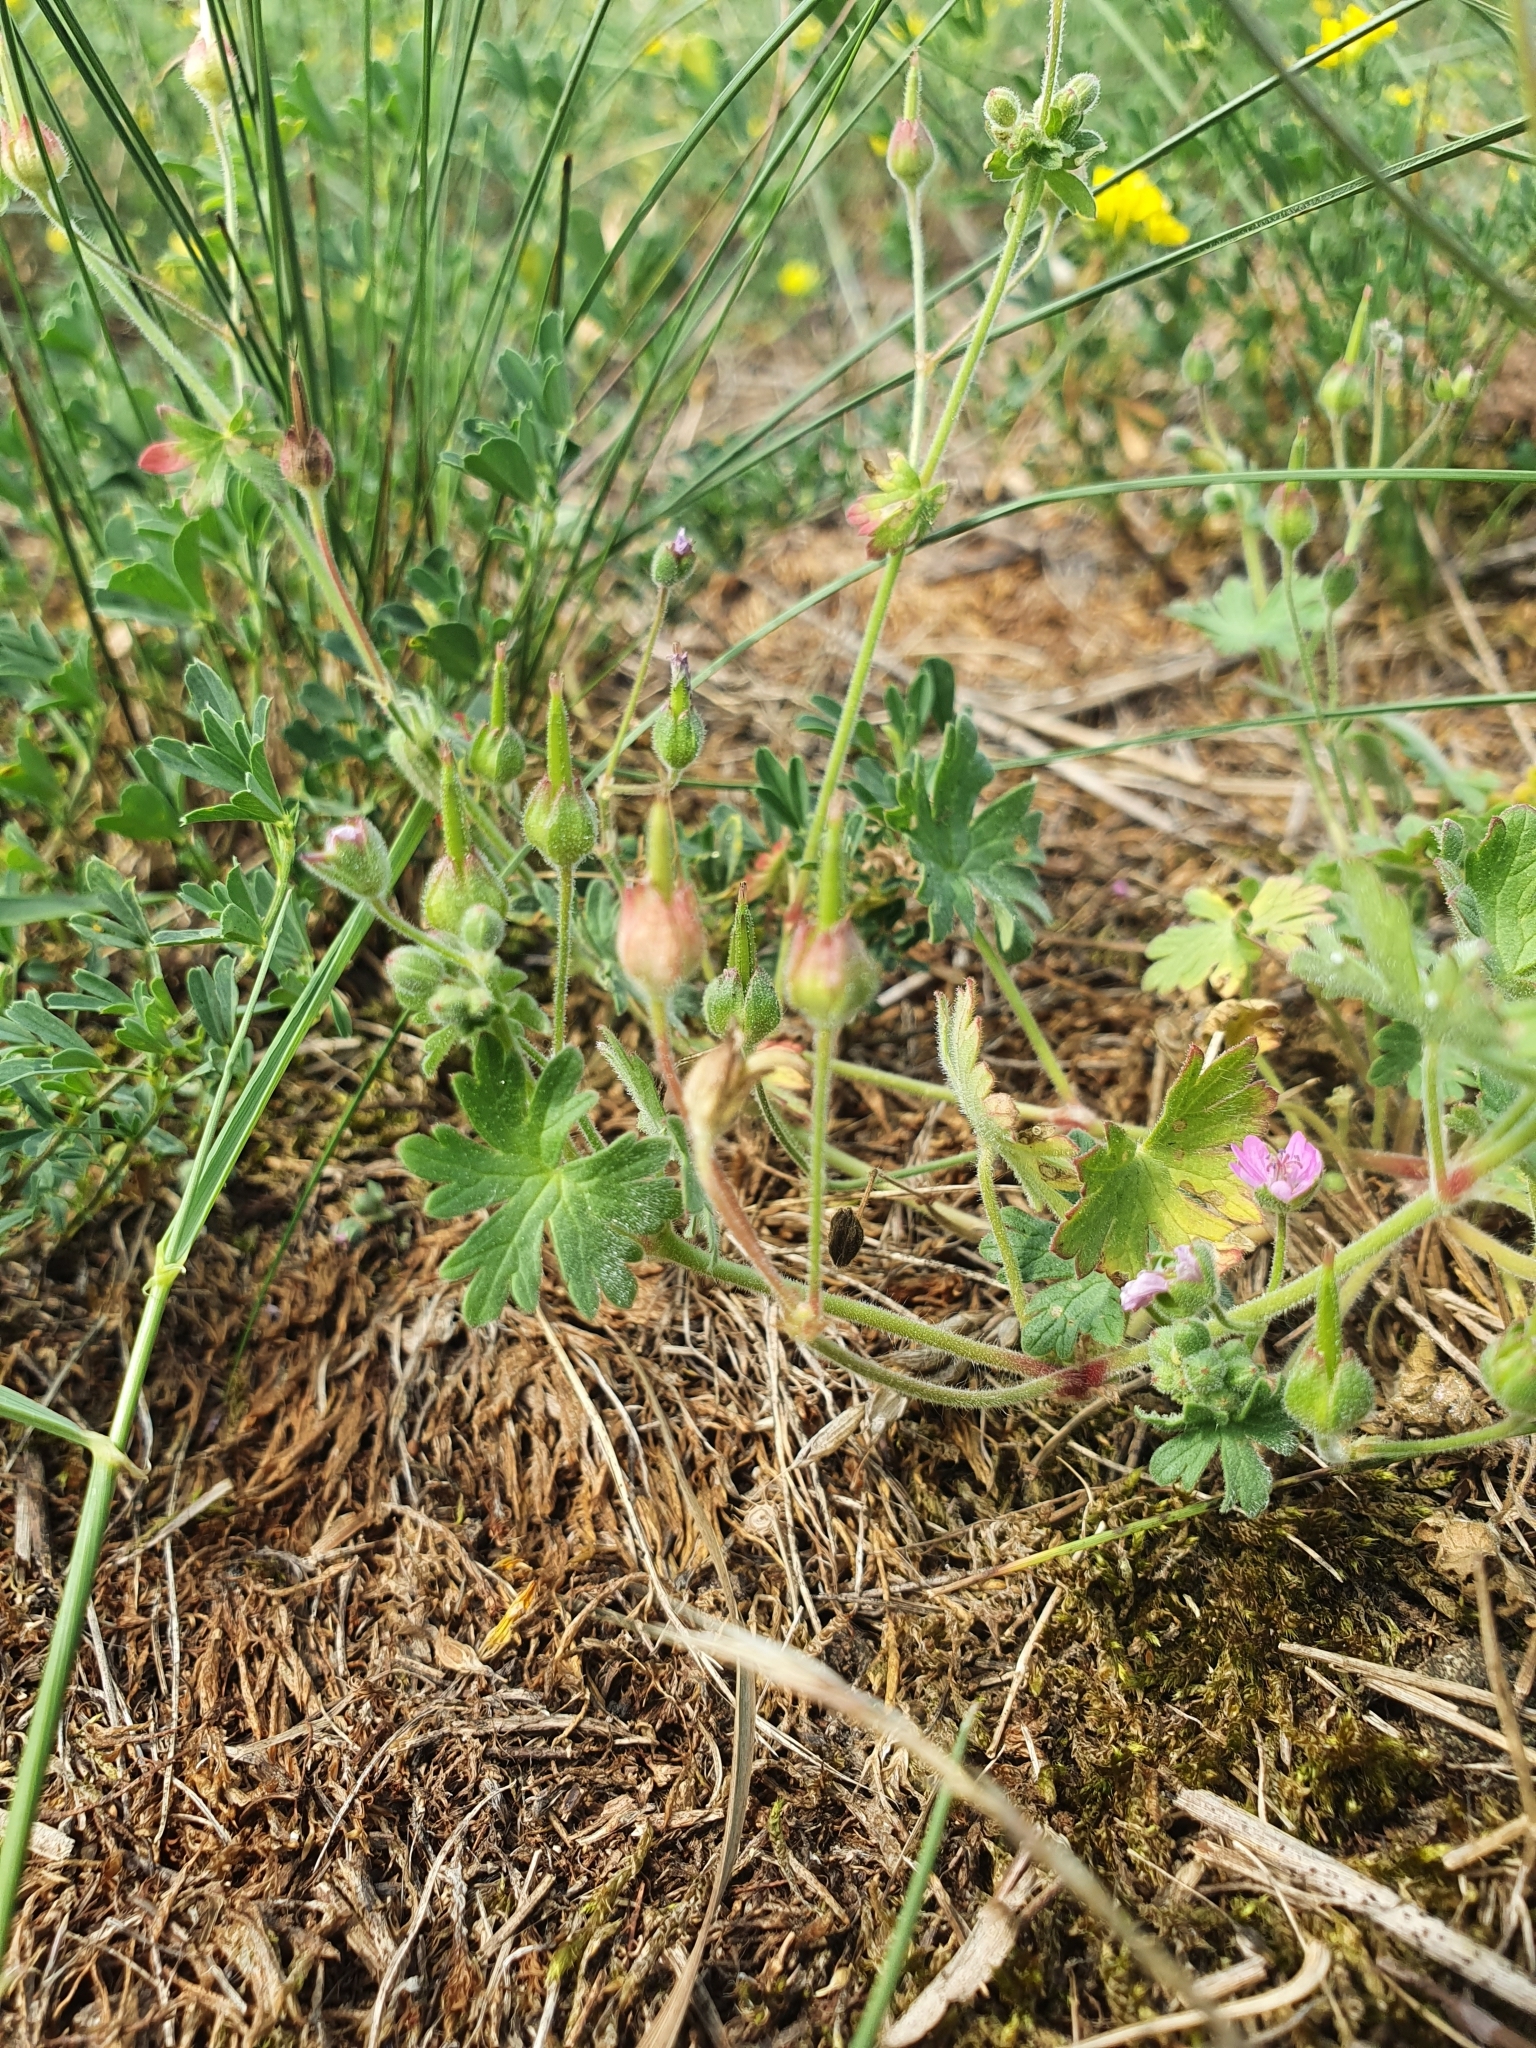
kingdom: Plantae
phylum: Tracheophyta
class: Magnoliopsida
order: Geraniales
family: Geraniaceae
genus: Geranium
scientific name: Geranium molle
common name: Dove's-foot crane's-bill
